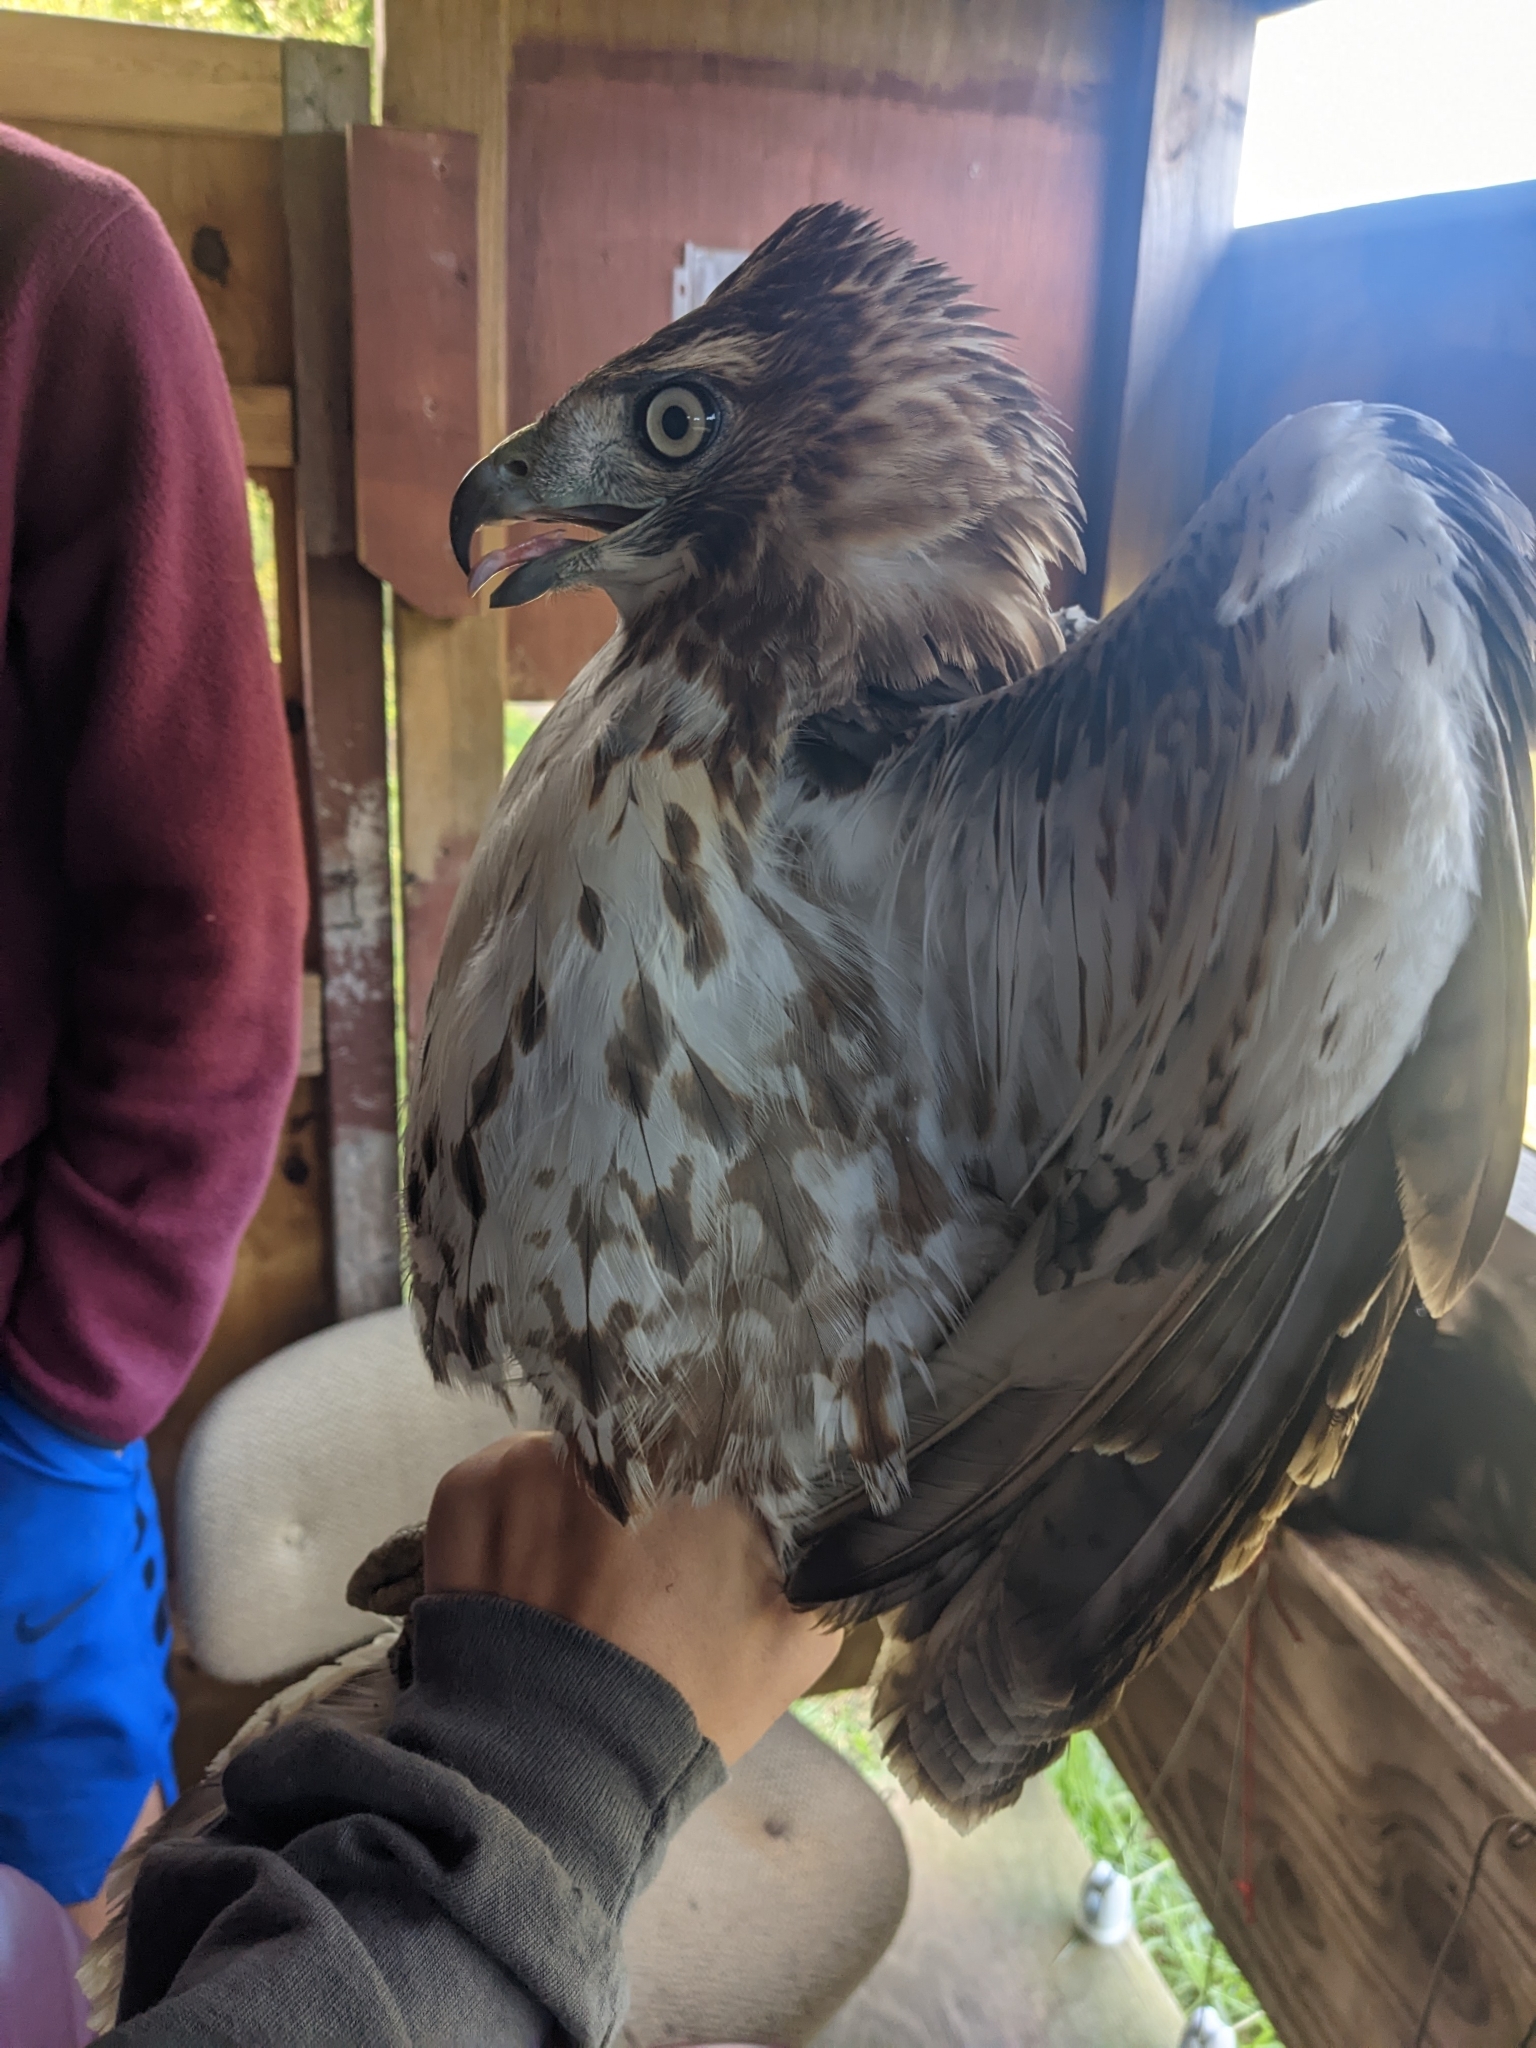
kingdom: Animalia
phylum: Chordata
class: Aves
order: Accipitriformes
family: Accipitridae
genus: Buteo
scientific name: Buteo jamaicensis
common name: Red-tailed hawk
